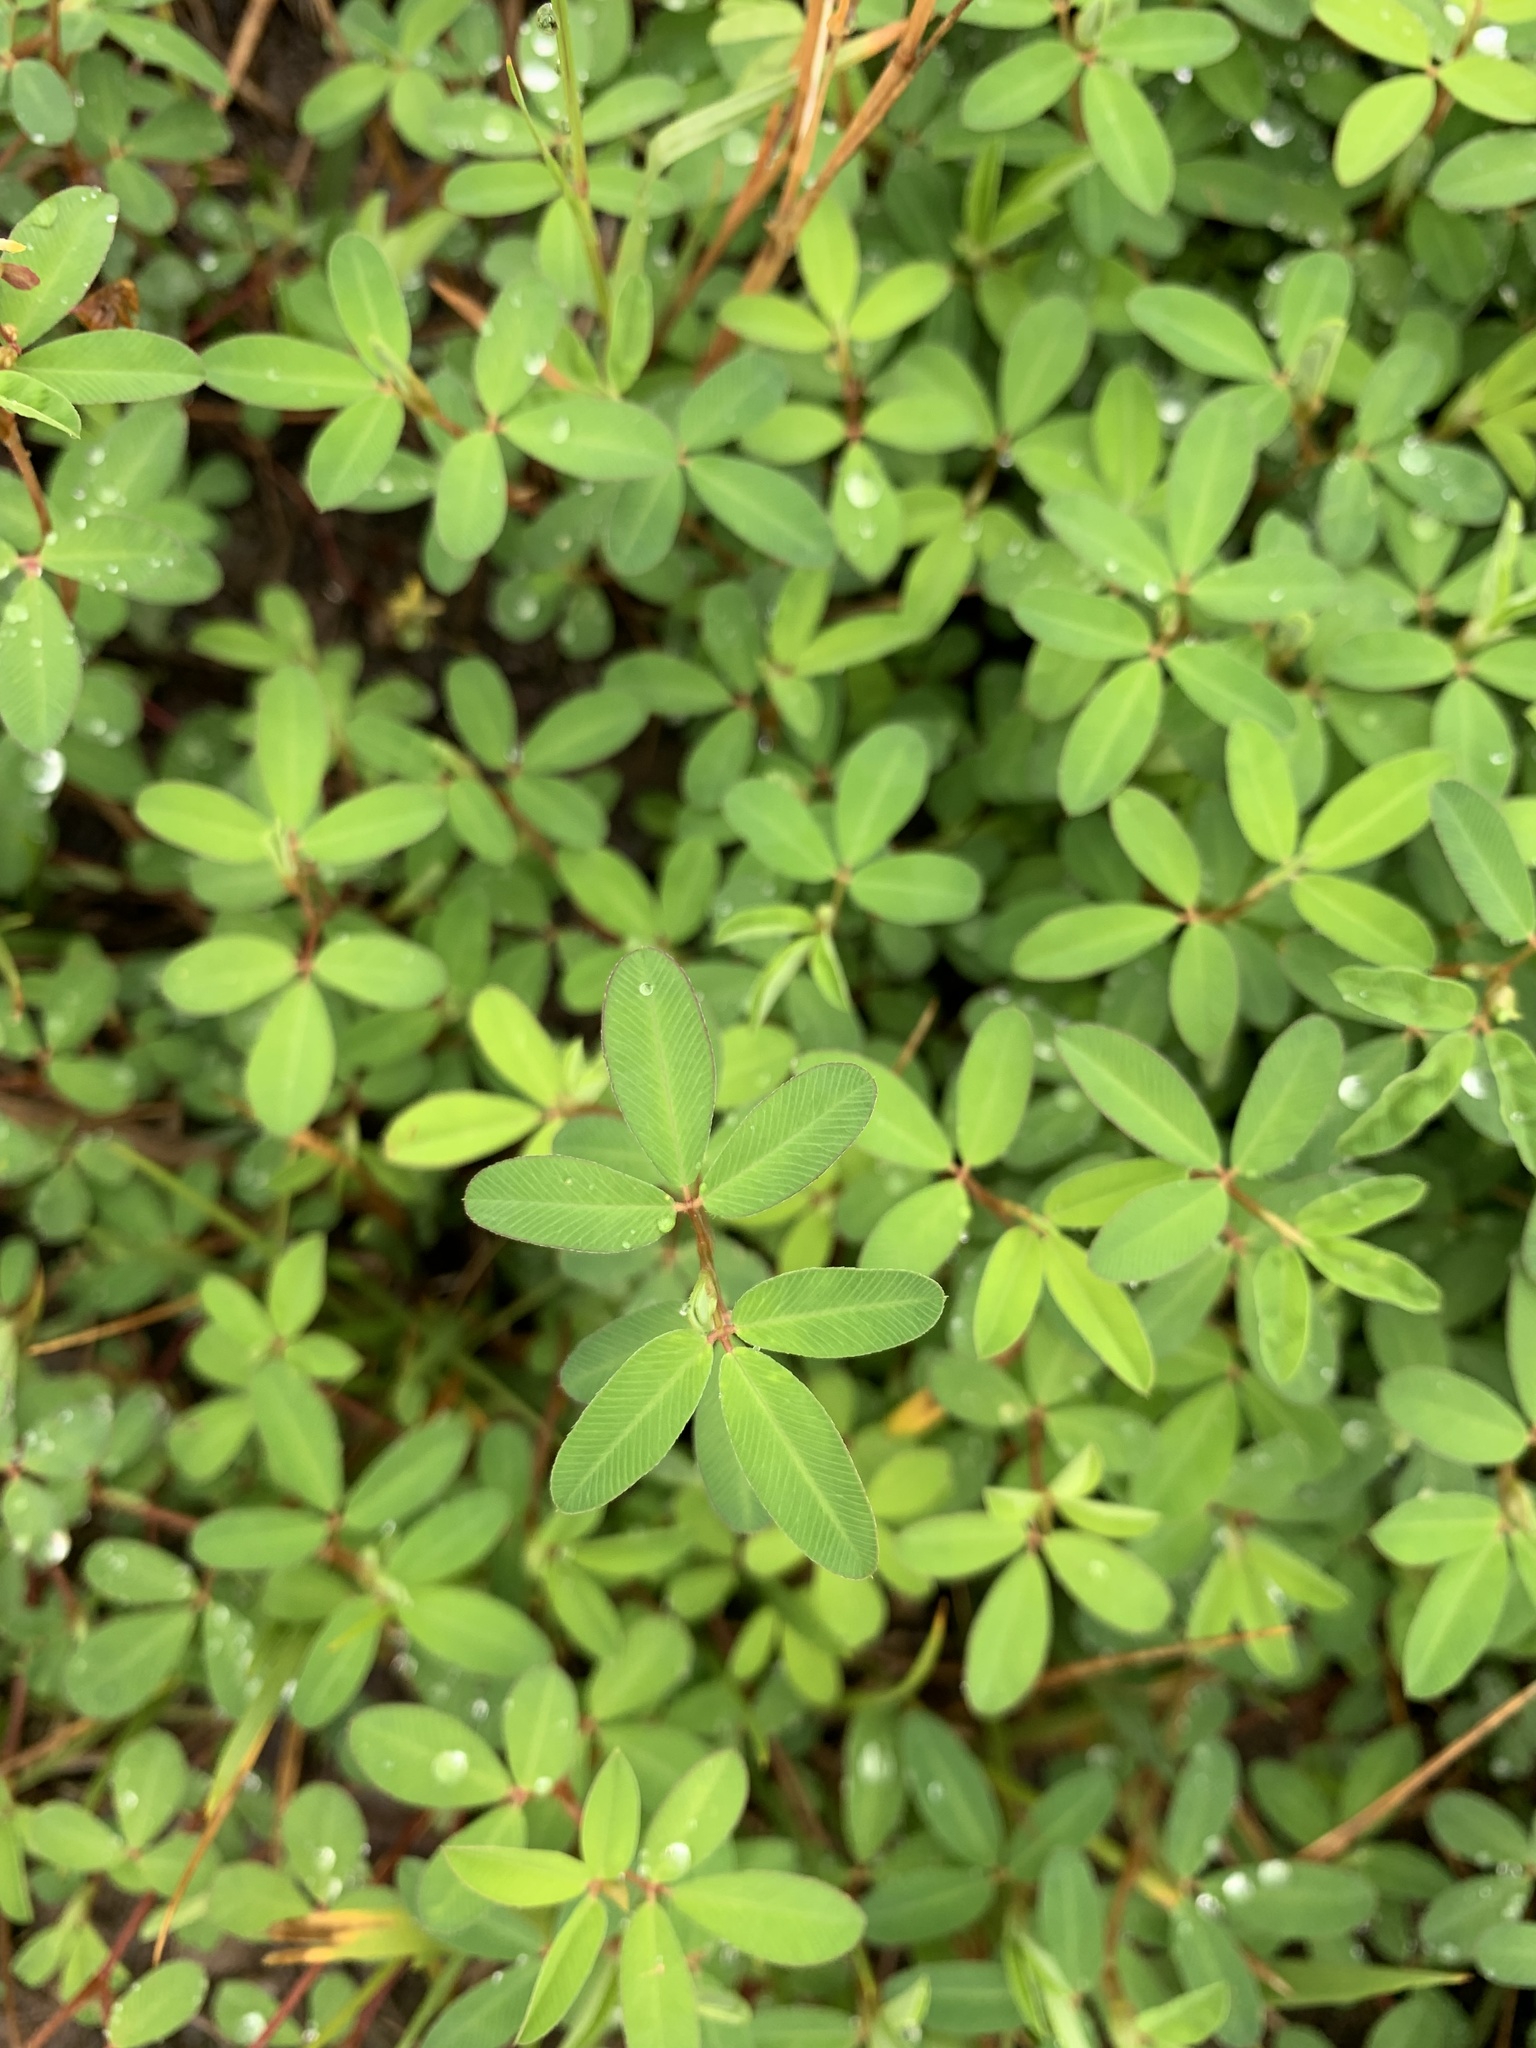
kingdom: Plantae
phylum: Tracheophyta
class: Magnoliopsida
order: Fabales
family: Fabaceae
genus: Kummerowia
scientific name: Kummerowia striata
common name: Japanese clover
